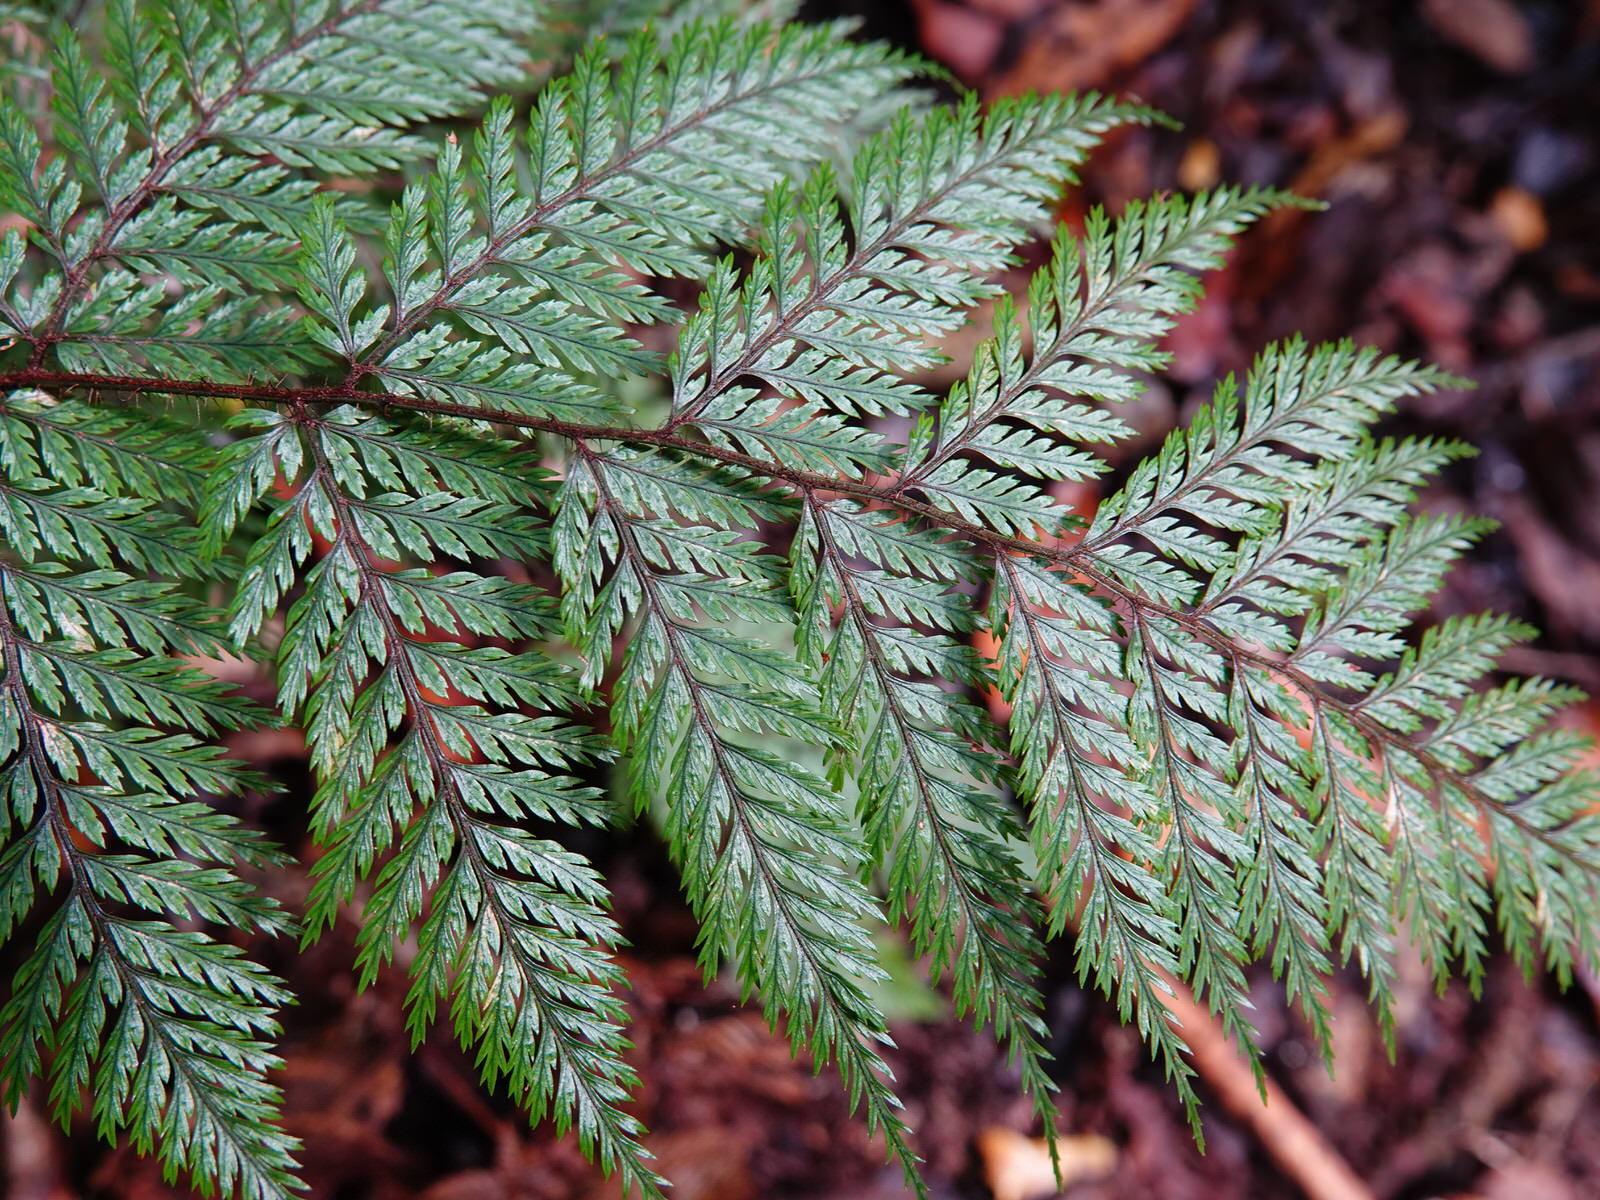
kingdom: Plantae
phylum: Tracheophyta
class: Polypodiopsida
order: Polypodiales
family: Dryopteridaceae
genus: Lastreopsis
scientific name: Lastreopsis hispida
